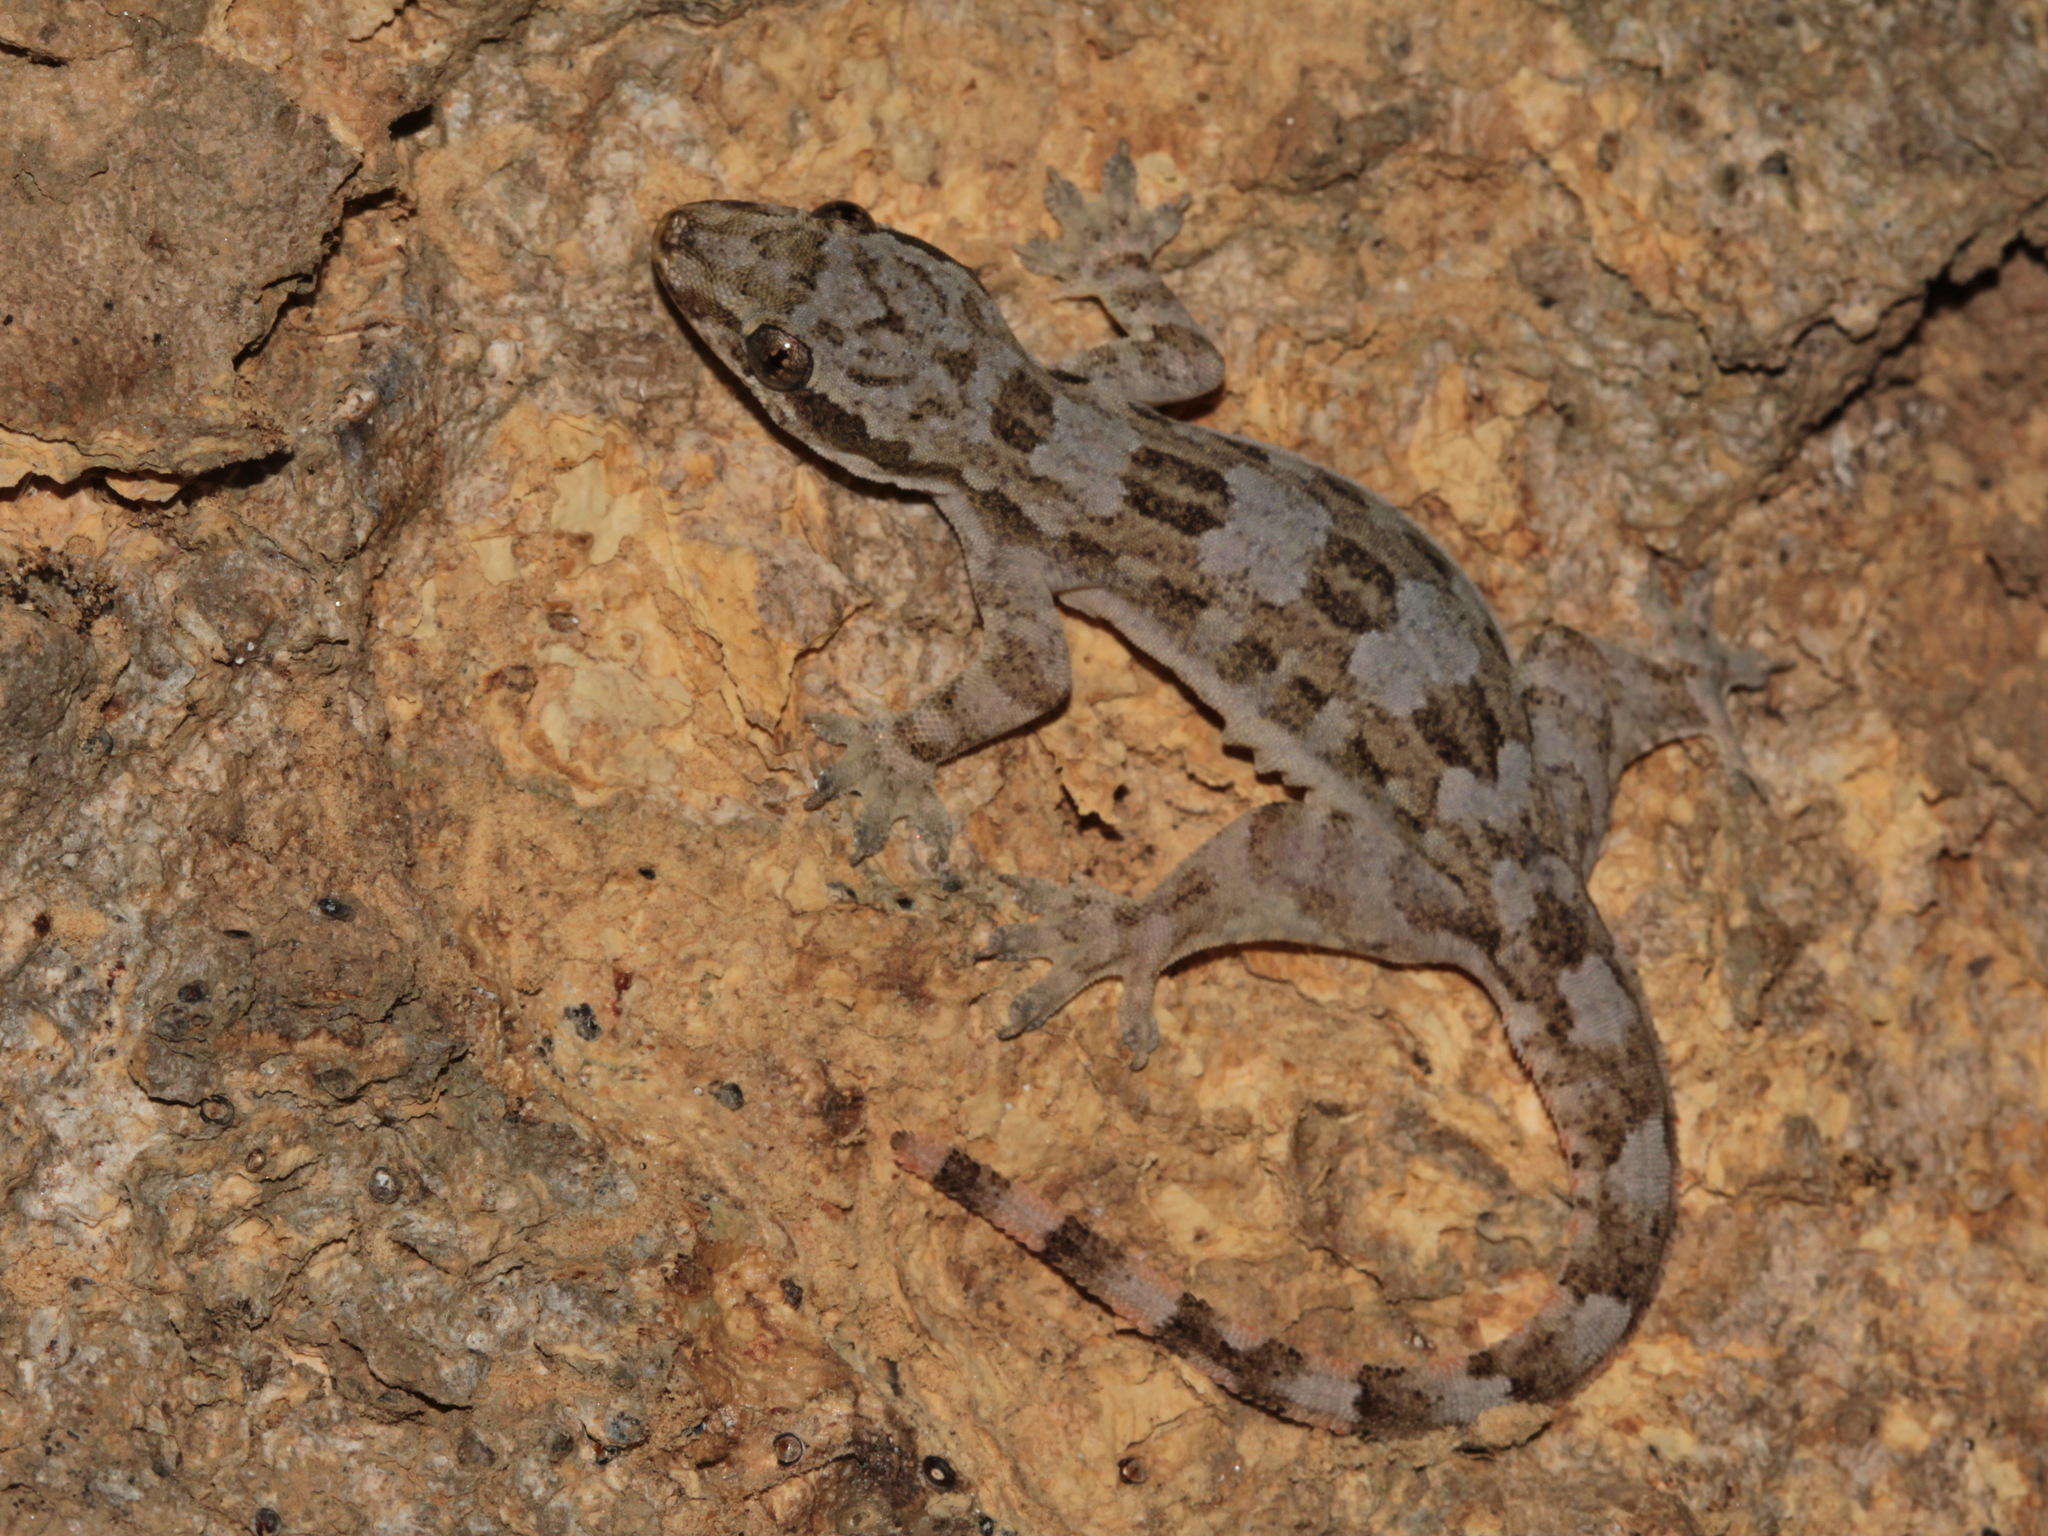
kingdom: Animalia
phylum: Chordata
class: Squamata
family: Gekkonidae
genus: Hemidactylus
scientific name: Hemidactylus platyurus
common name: Flat-tailed house gecko
